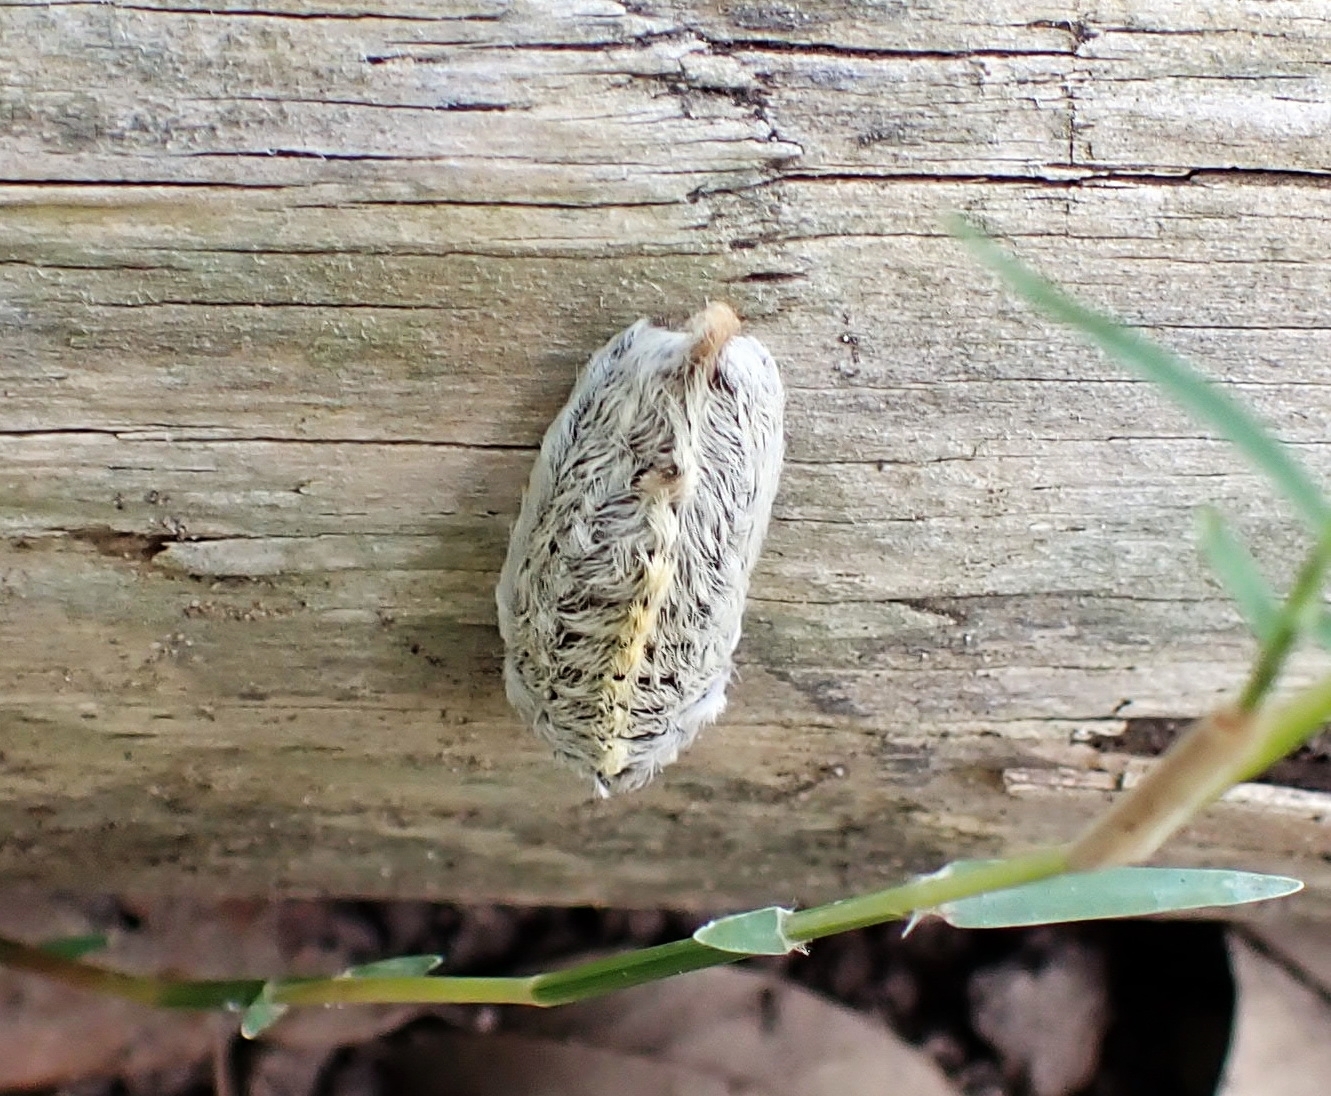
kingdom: Animalia
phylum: Arthropoda
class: Insecta
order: Lepidoptera
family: Megalopygidae
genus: Megalopyge
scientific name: Megalopyge opercularis
